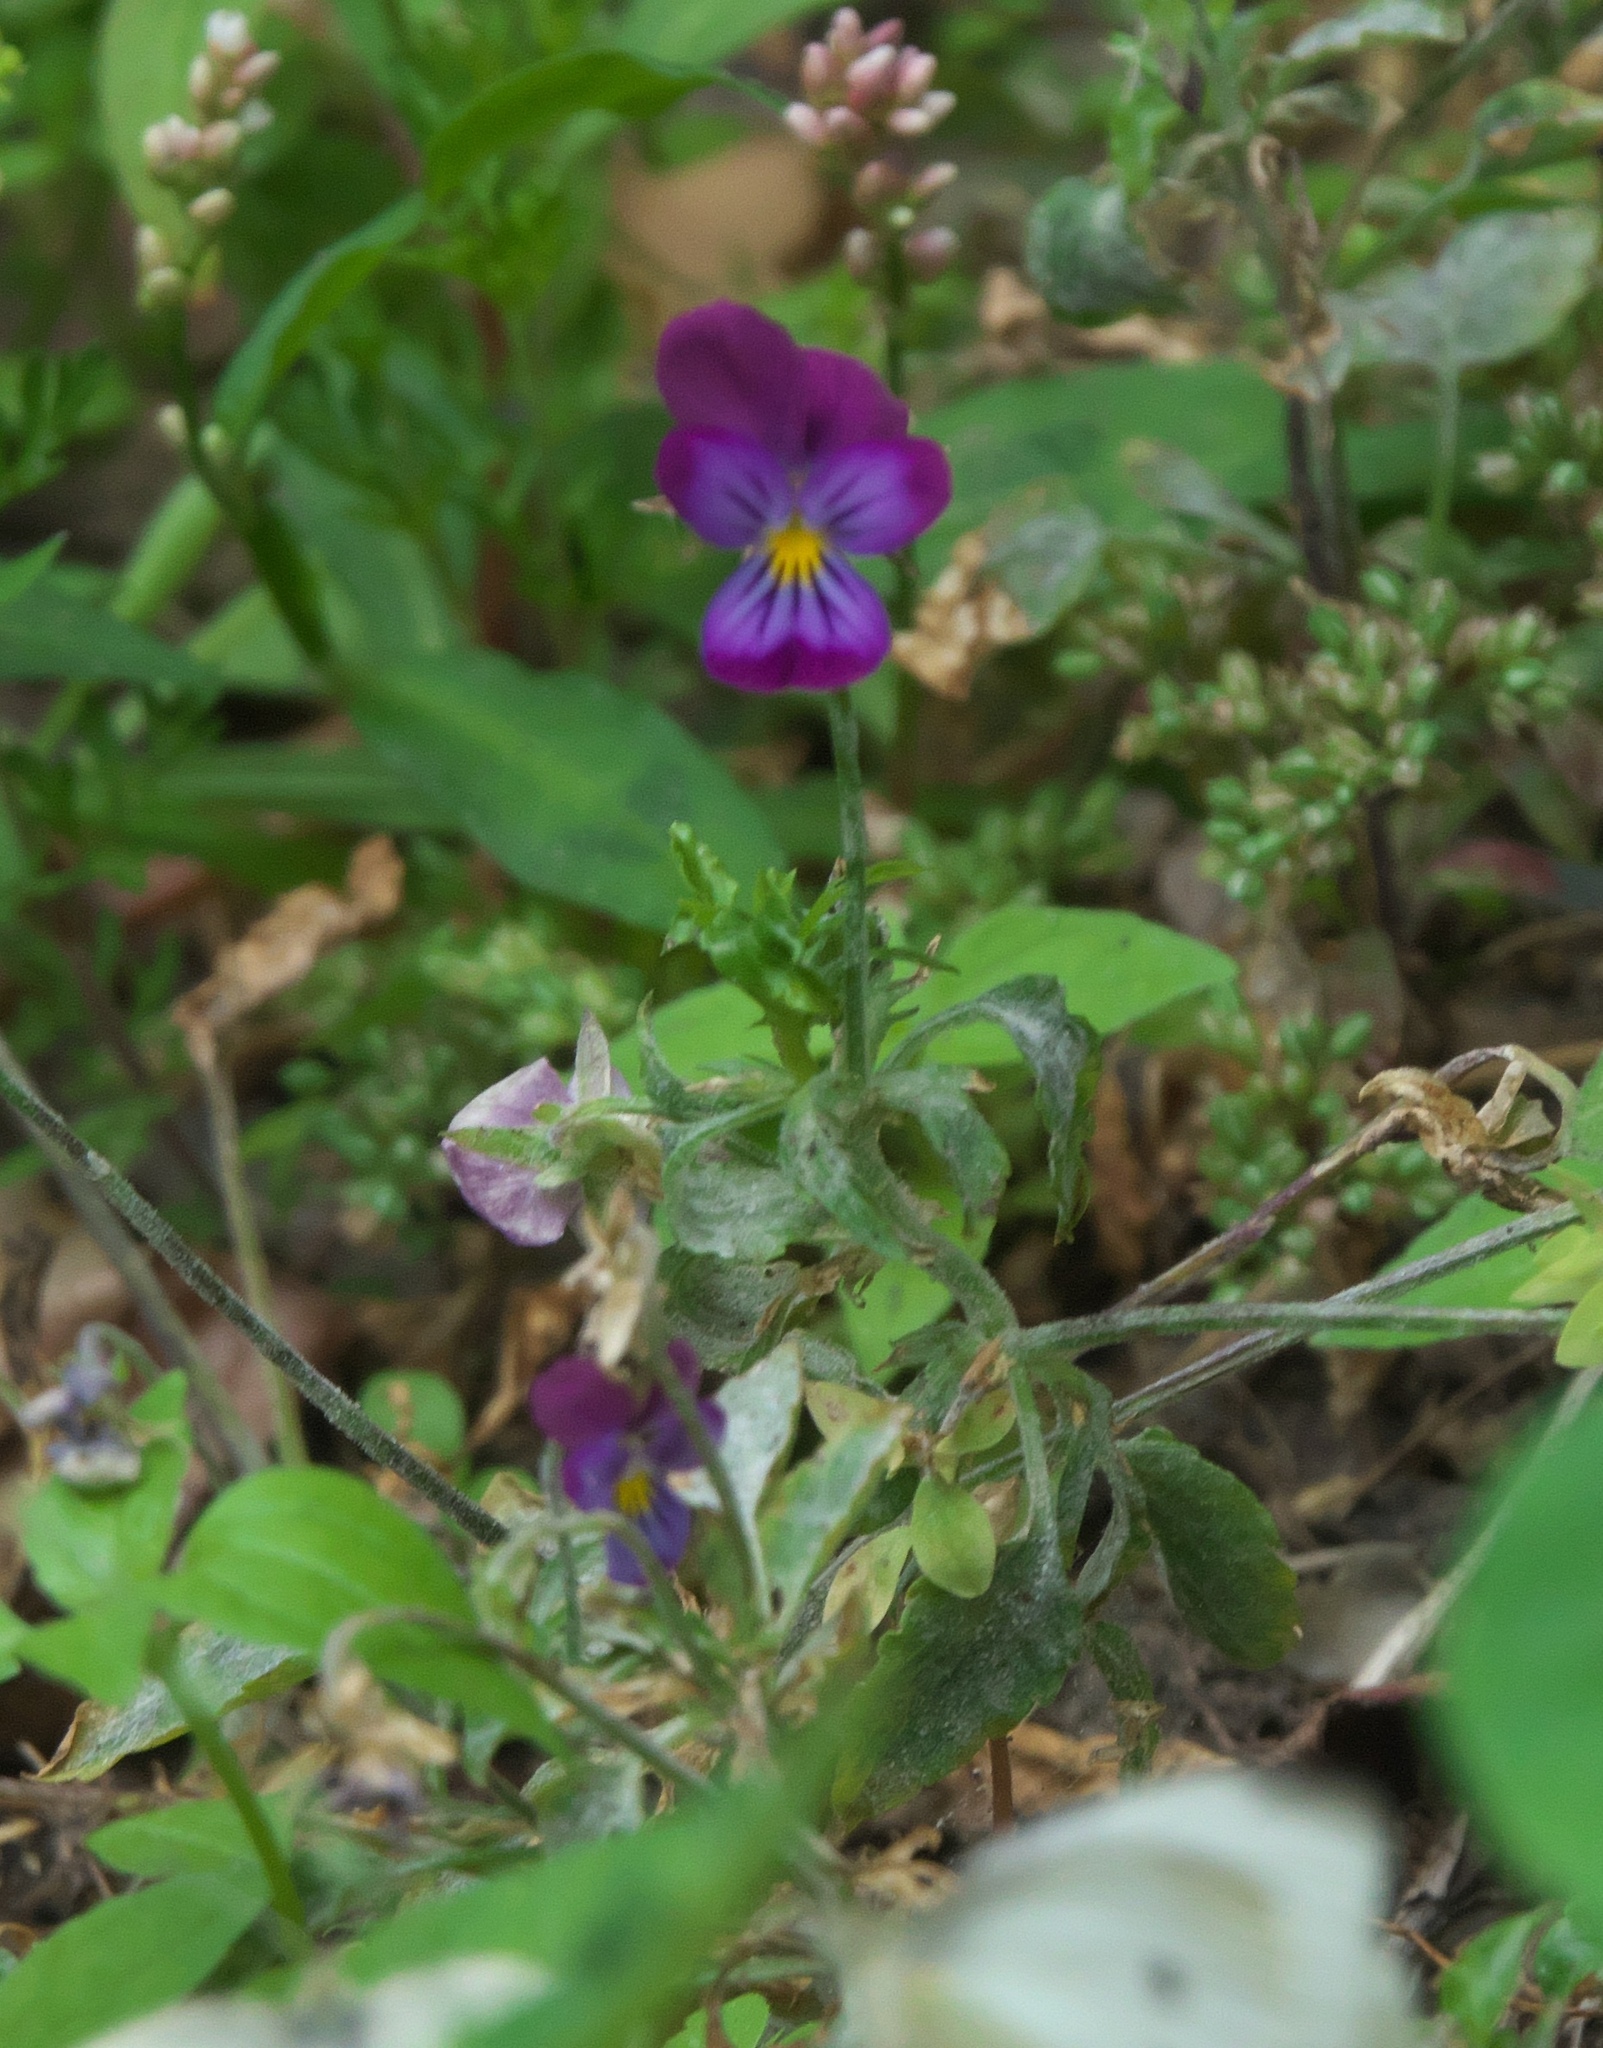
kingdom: Plantae
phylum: Tracheophyta
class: Magnoliopsida
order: Malpighiales
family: Violaceae
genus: Viola
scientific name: Viola williamsii
